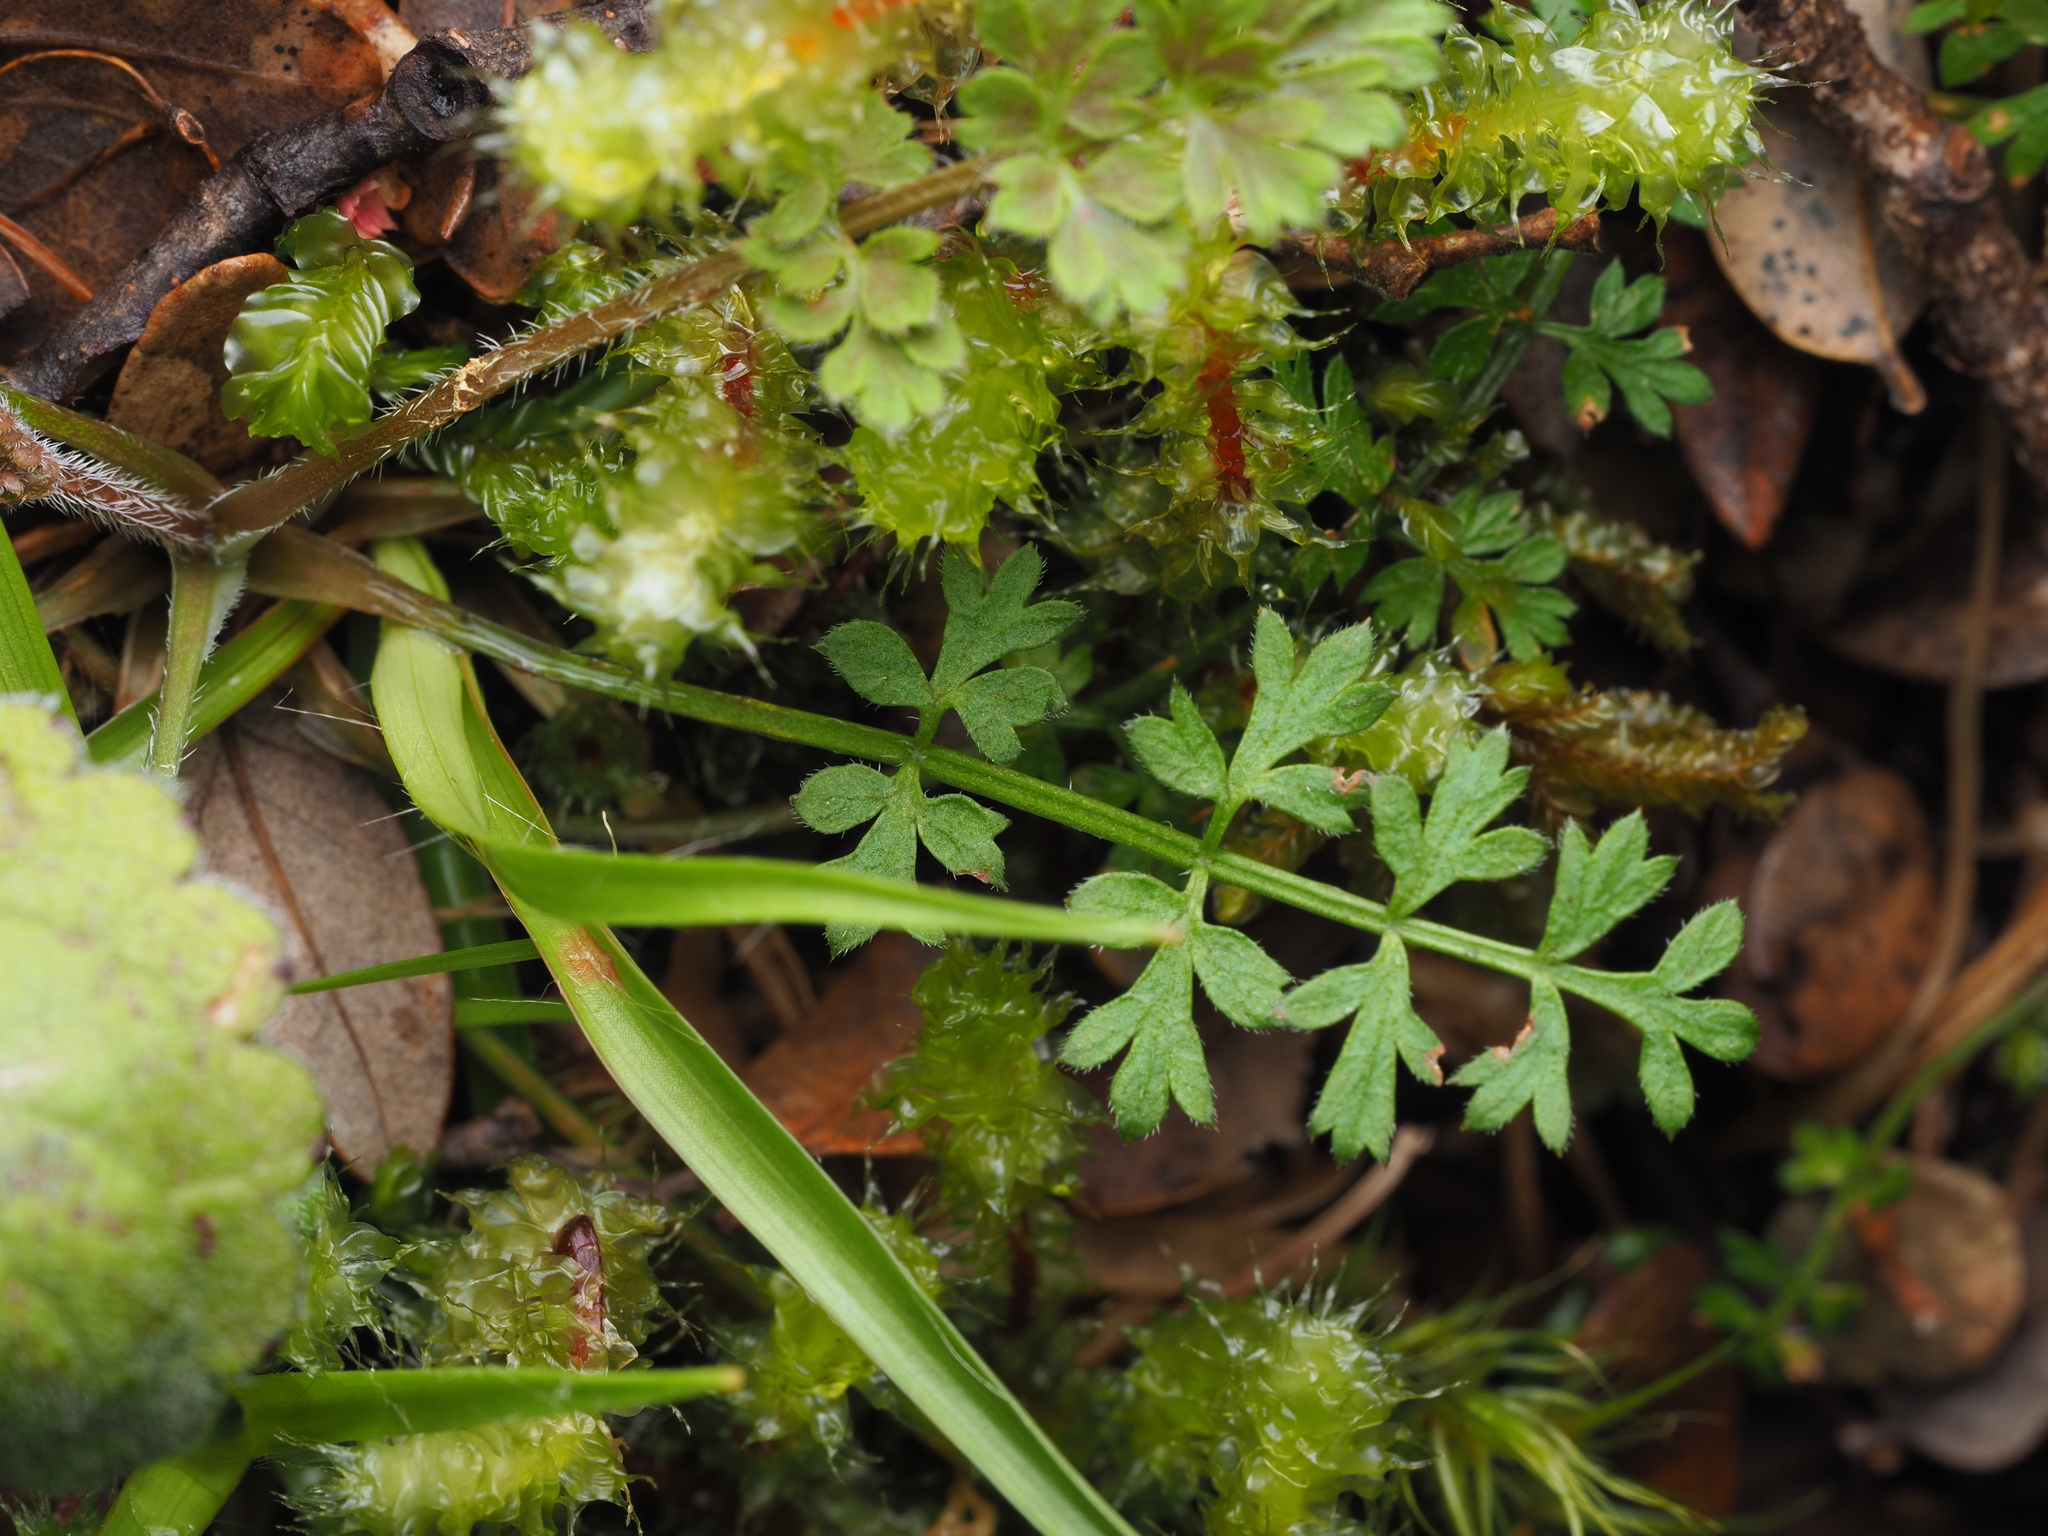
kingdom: Plantae
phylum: Tracheophyta
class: Magnoliopsida
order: Apiales
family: Apiaceae
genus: Chaerophyllum
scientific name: Chaerophyllum colensoi
